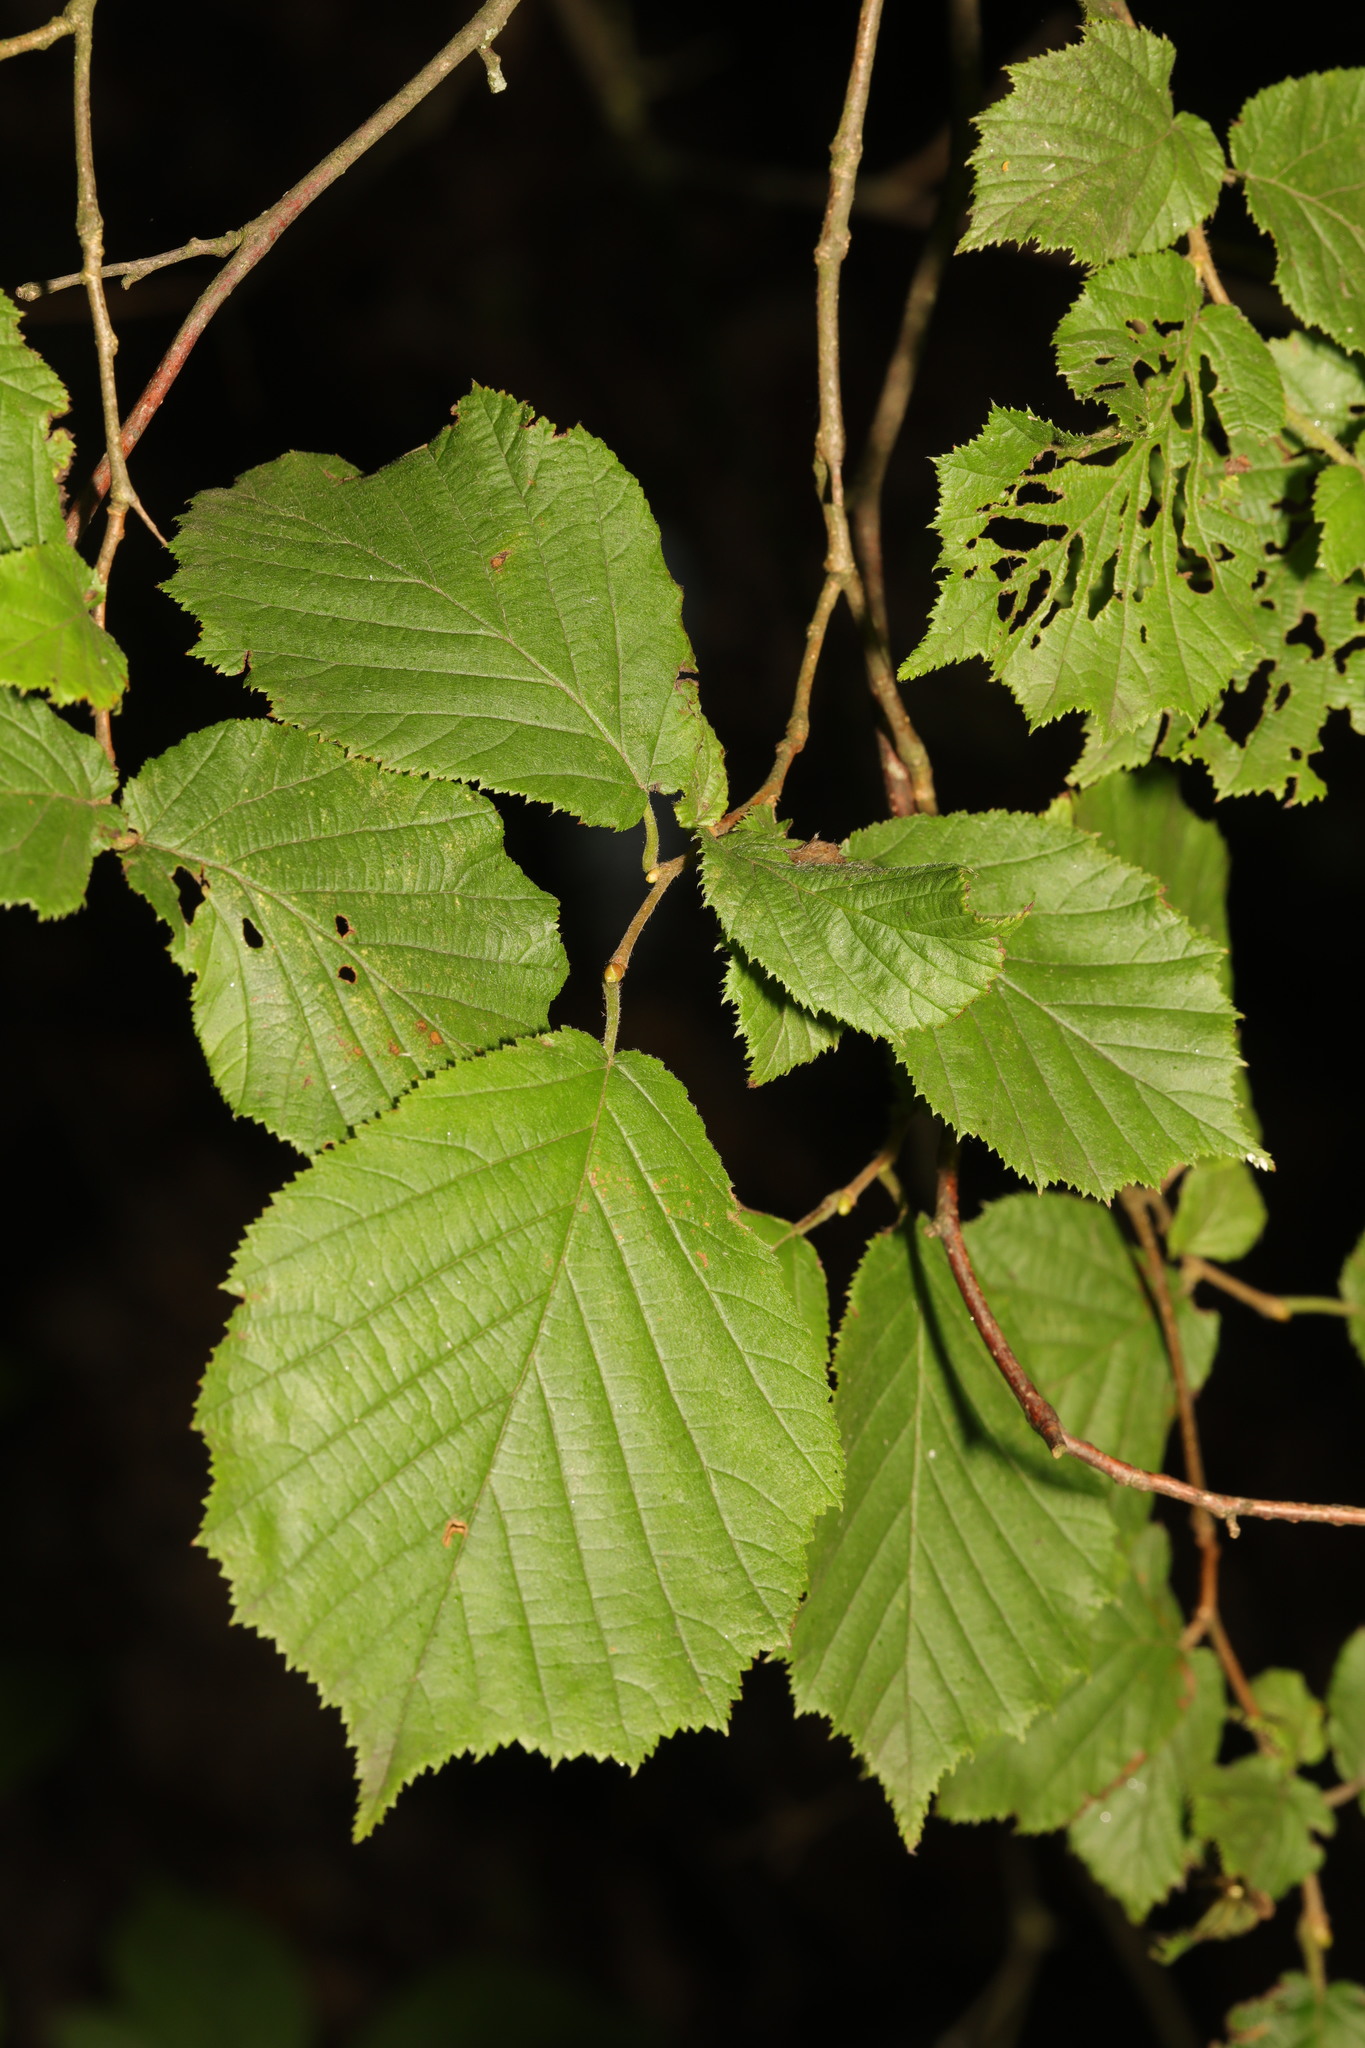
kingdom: Plantae
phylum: Tracheophyta
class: Magnoliopsida
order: Fagales
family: Betulaceae
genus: Corylus
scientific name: Corylus avellana
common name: European hazel
